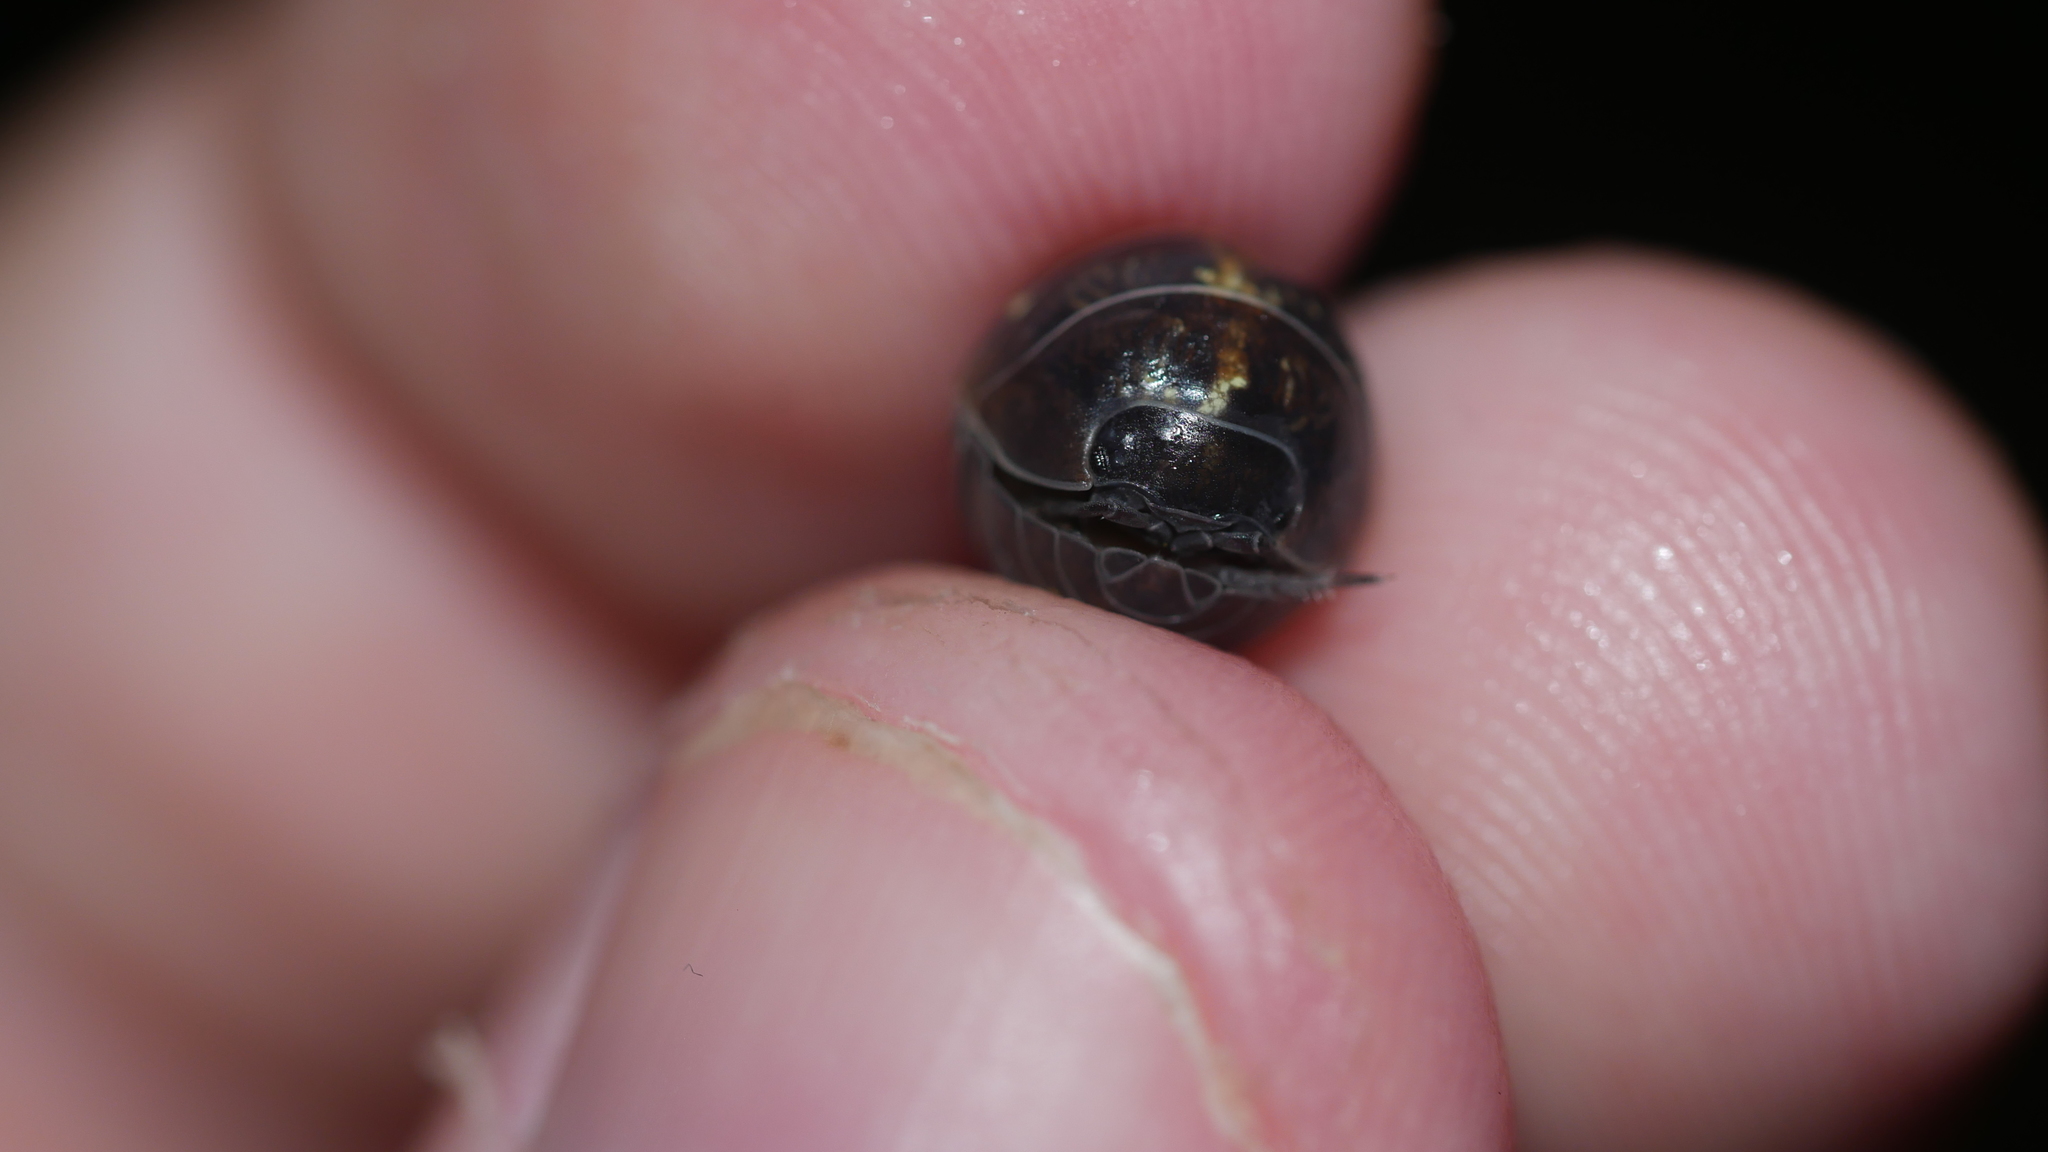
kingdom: Animalia
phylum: Arthropoda
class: Malacostraca
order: Isopoda
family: Armadillidiidae
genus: Armadillidium
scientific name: Armadillidium vulgare
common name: Common pill woodlouse
